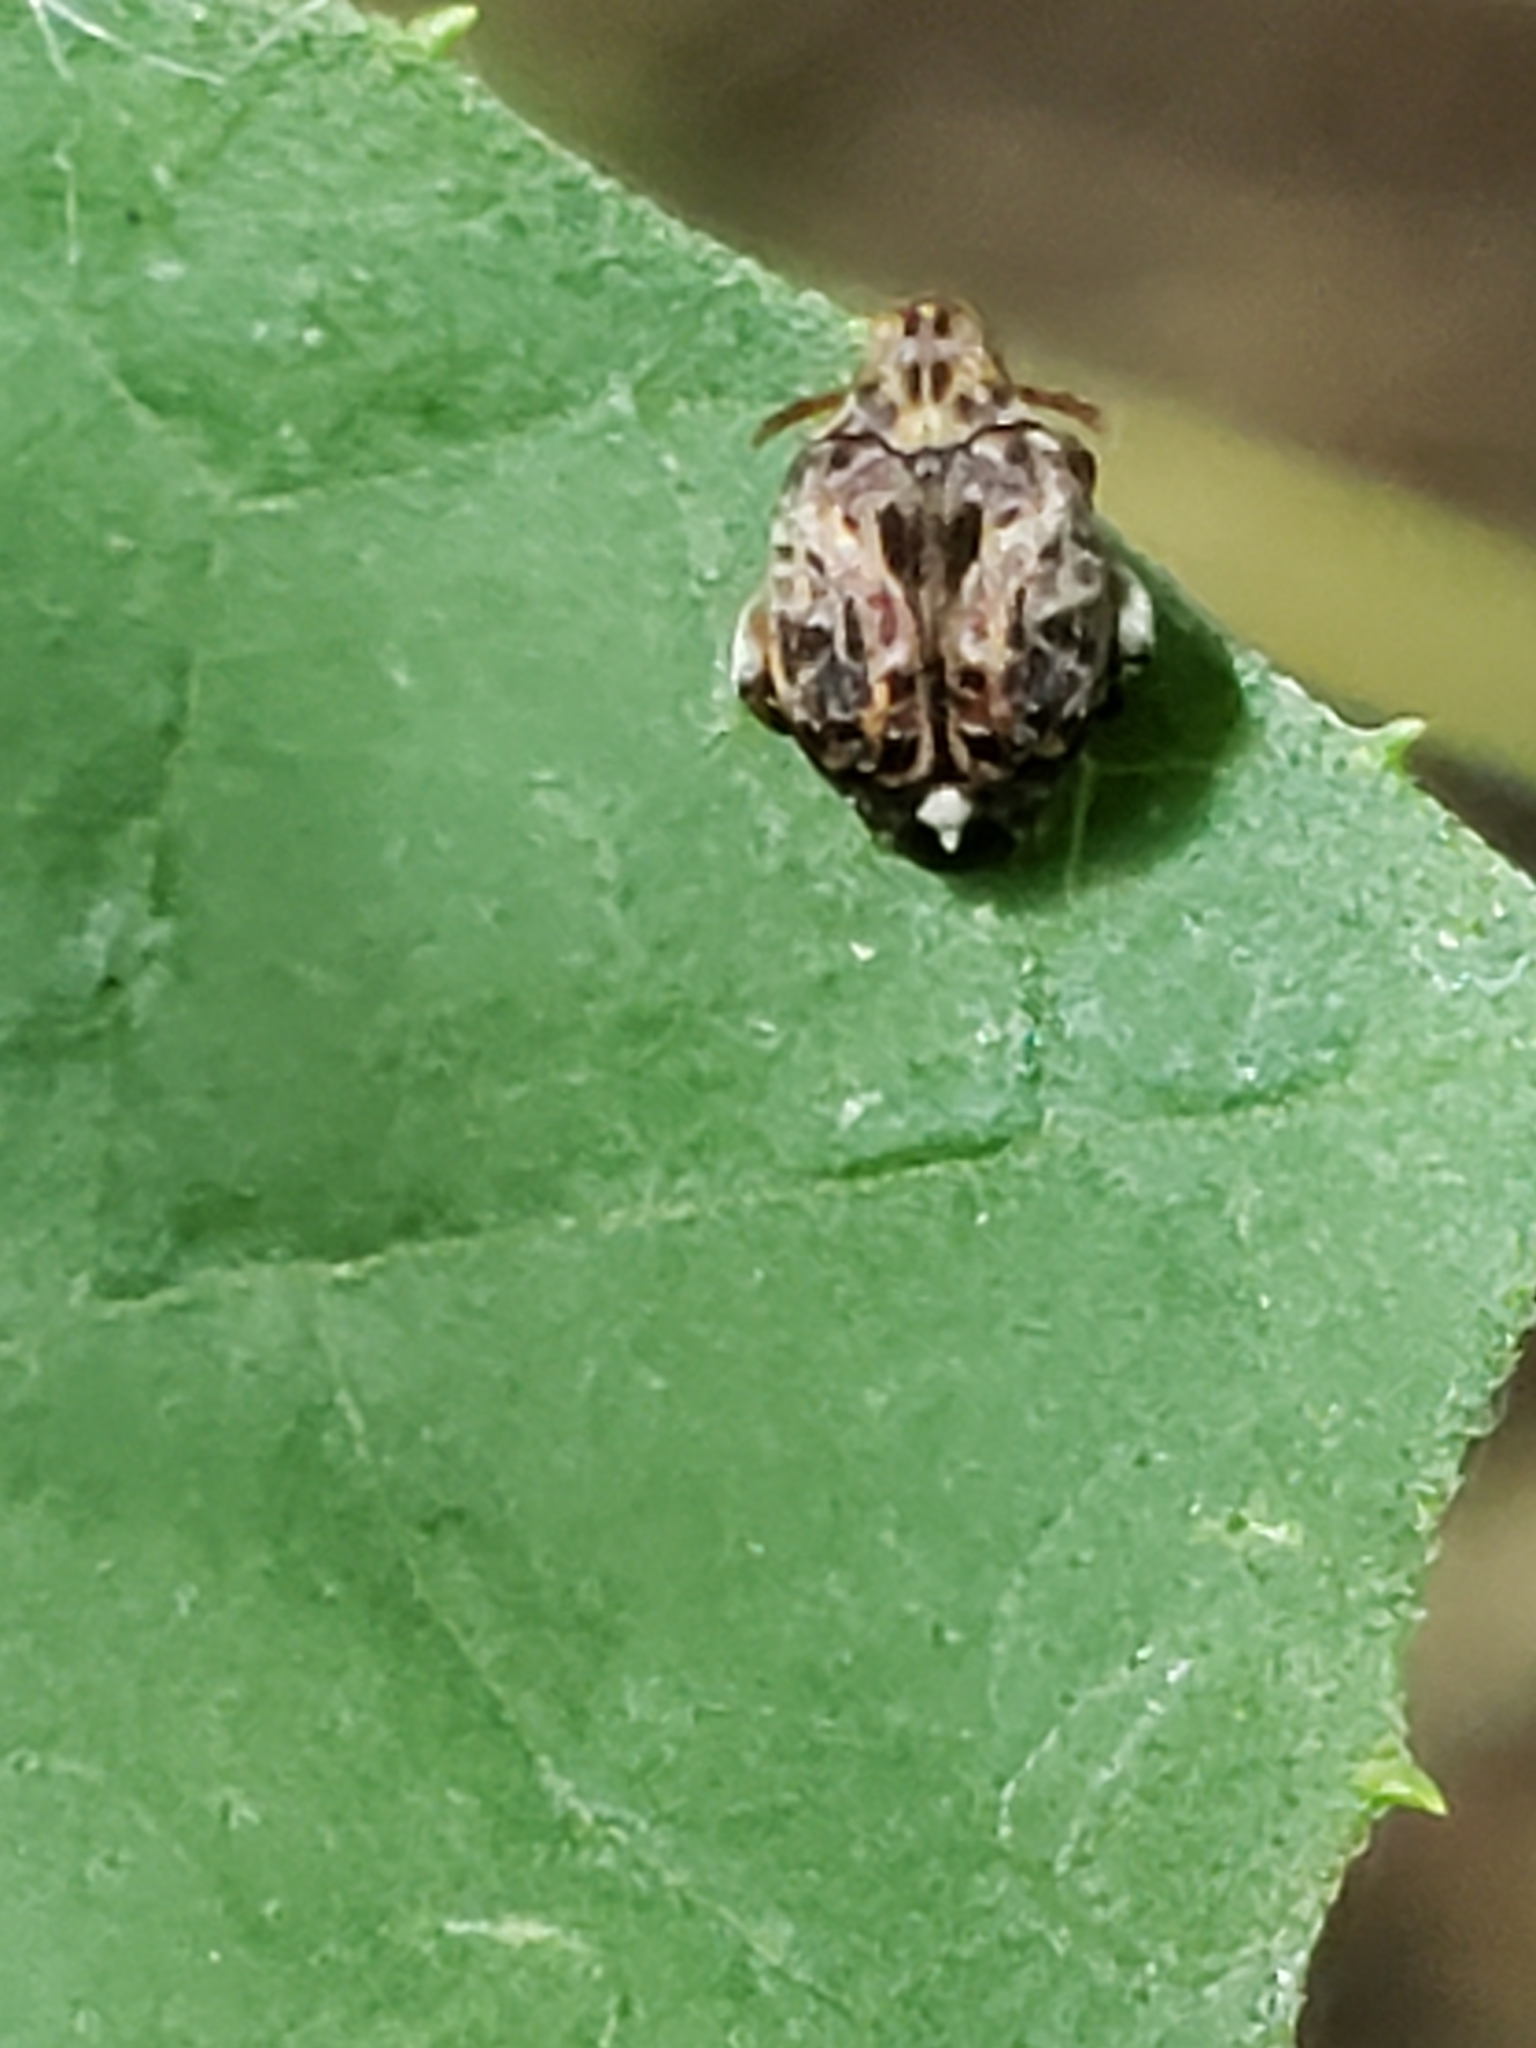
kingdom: Animalia
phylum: Arthropoda
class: Insecta
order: Coleoptera
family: Chrysomelidae
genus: Gibbobruchus
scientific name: Gibbobruchus mimus
